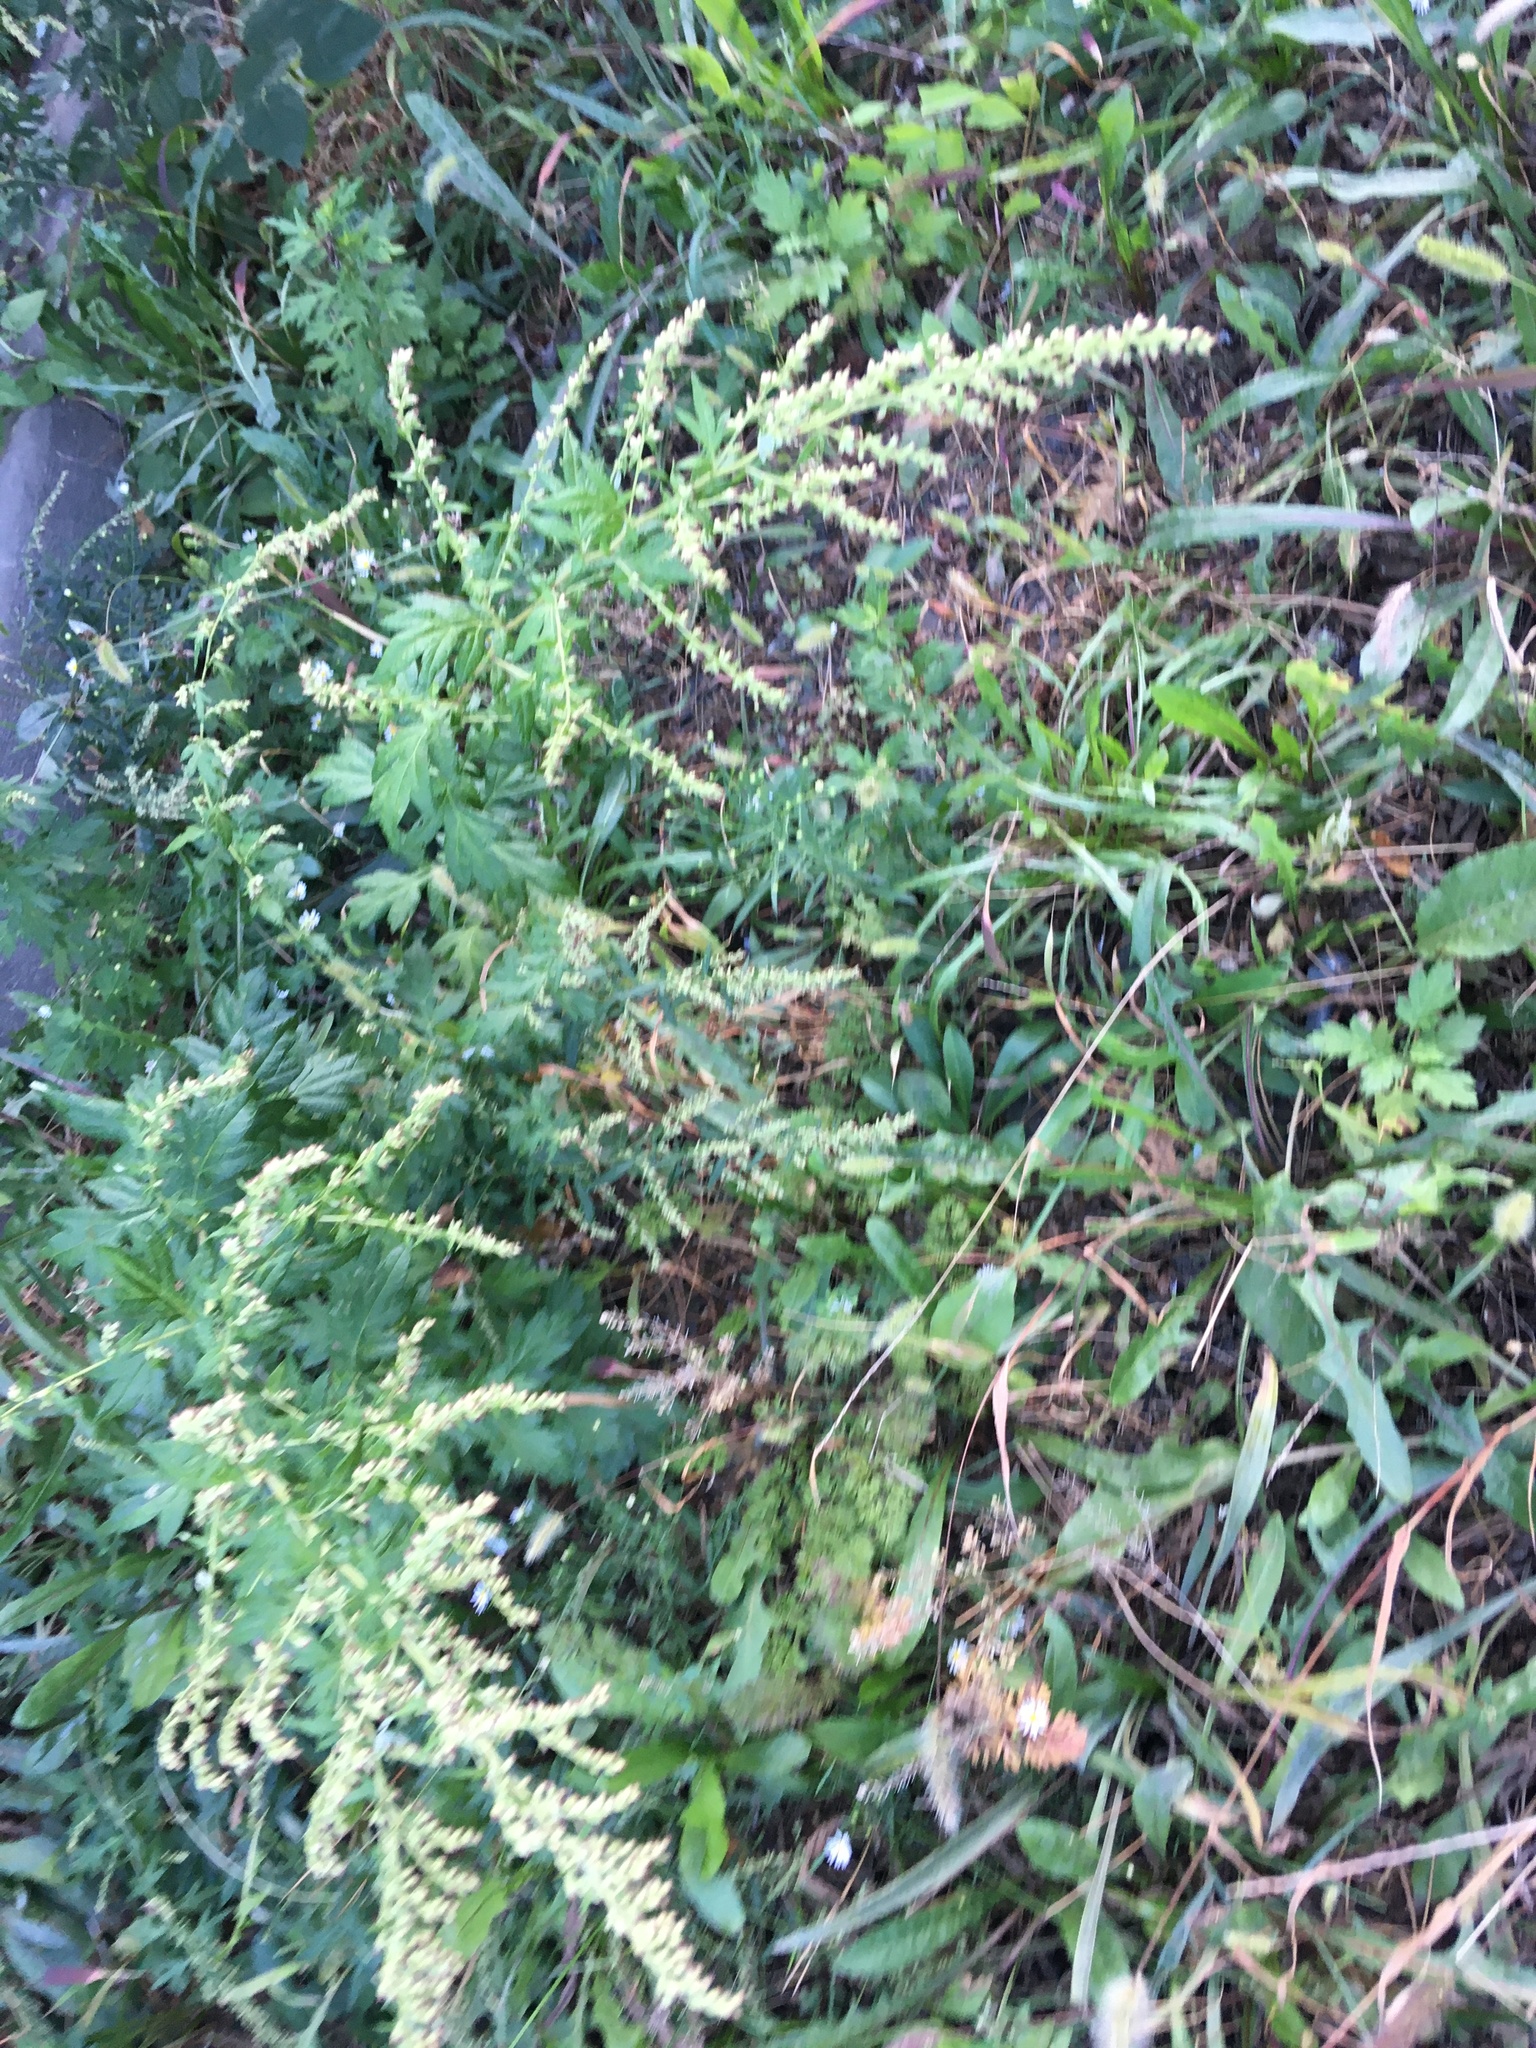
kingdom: Plantae
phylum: Tracheophyta
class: Magnoliopsida
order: Asterales
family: Asteraceae
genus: Artemisia
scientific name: Artemisia vulgaris
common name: Mugwort
